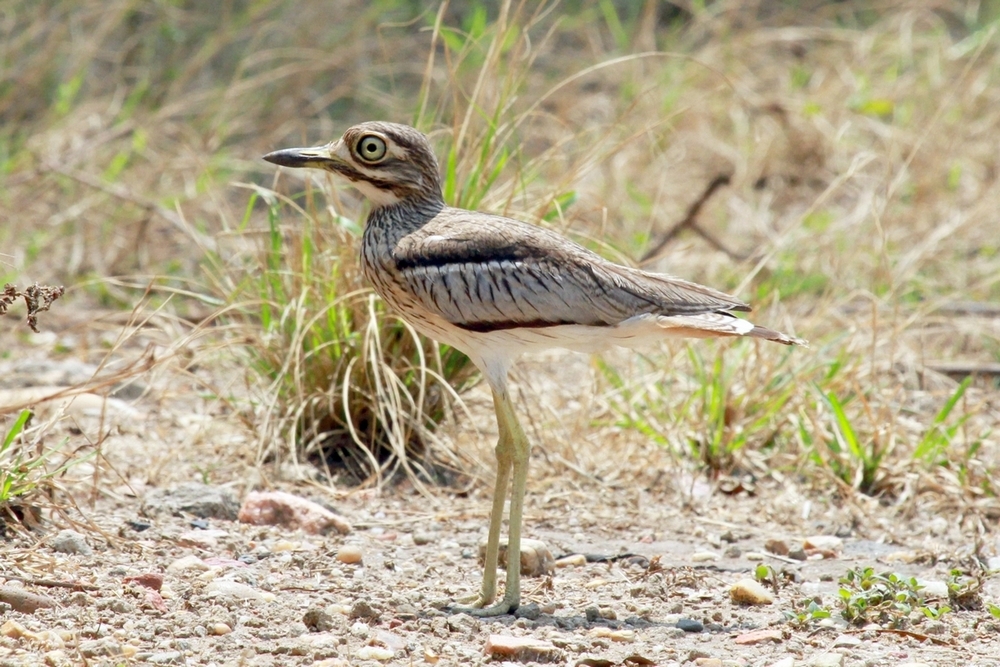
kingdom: Animalia
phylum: Chordata
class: Aves
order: Charadriiformes
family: Burhinidae
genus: Burhinus
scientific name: Burhinus vermiculatus
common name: Water thick-knee
